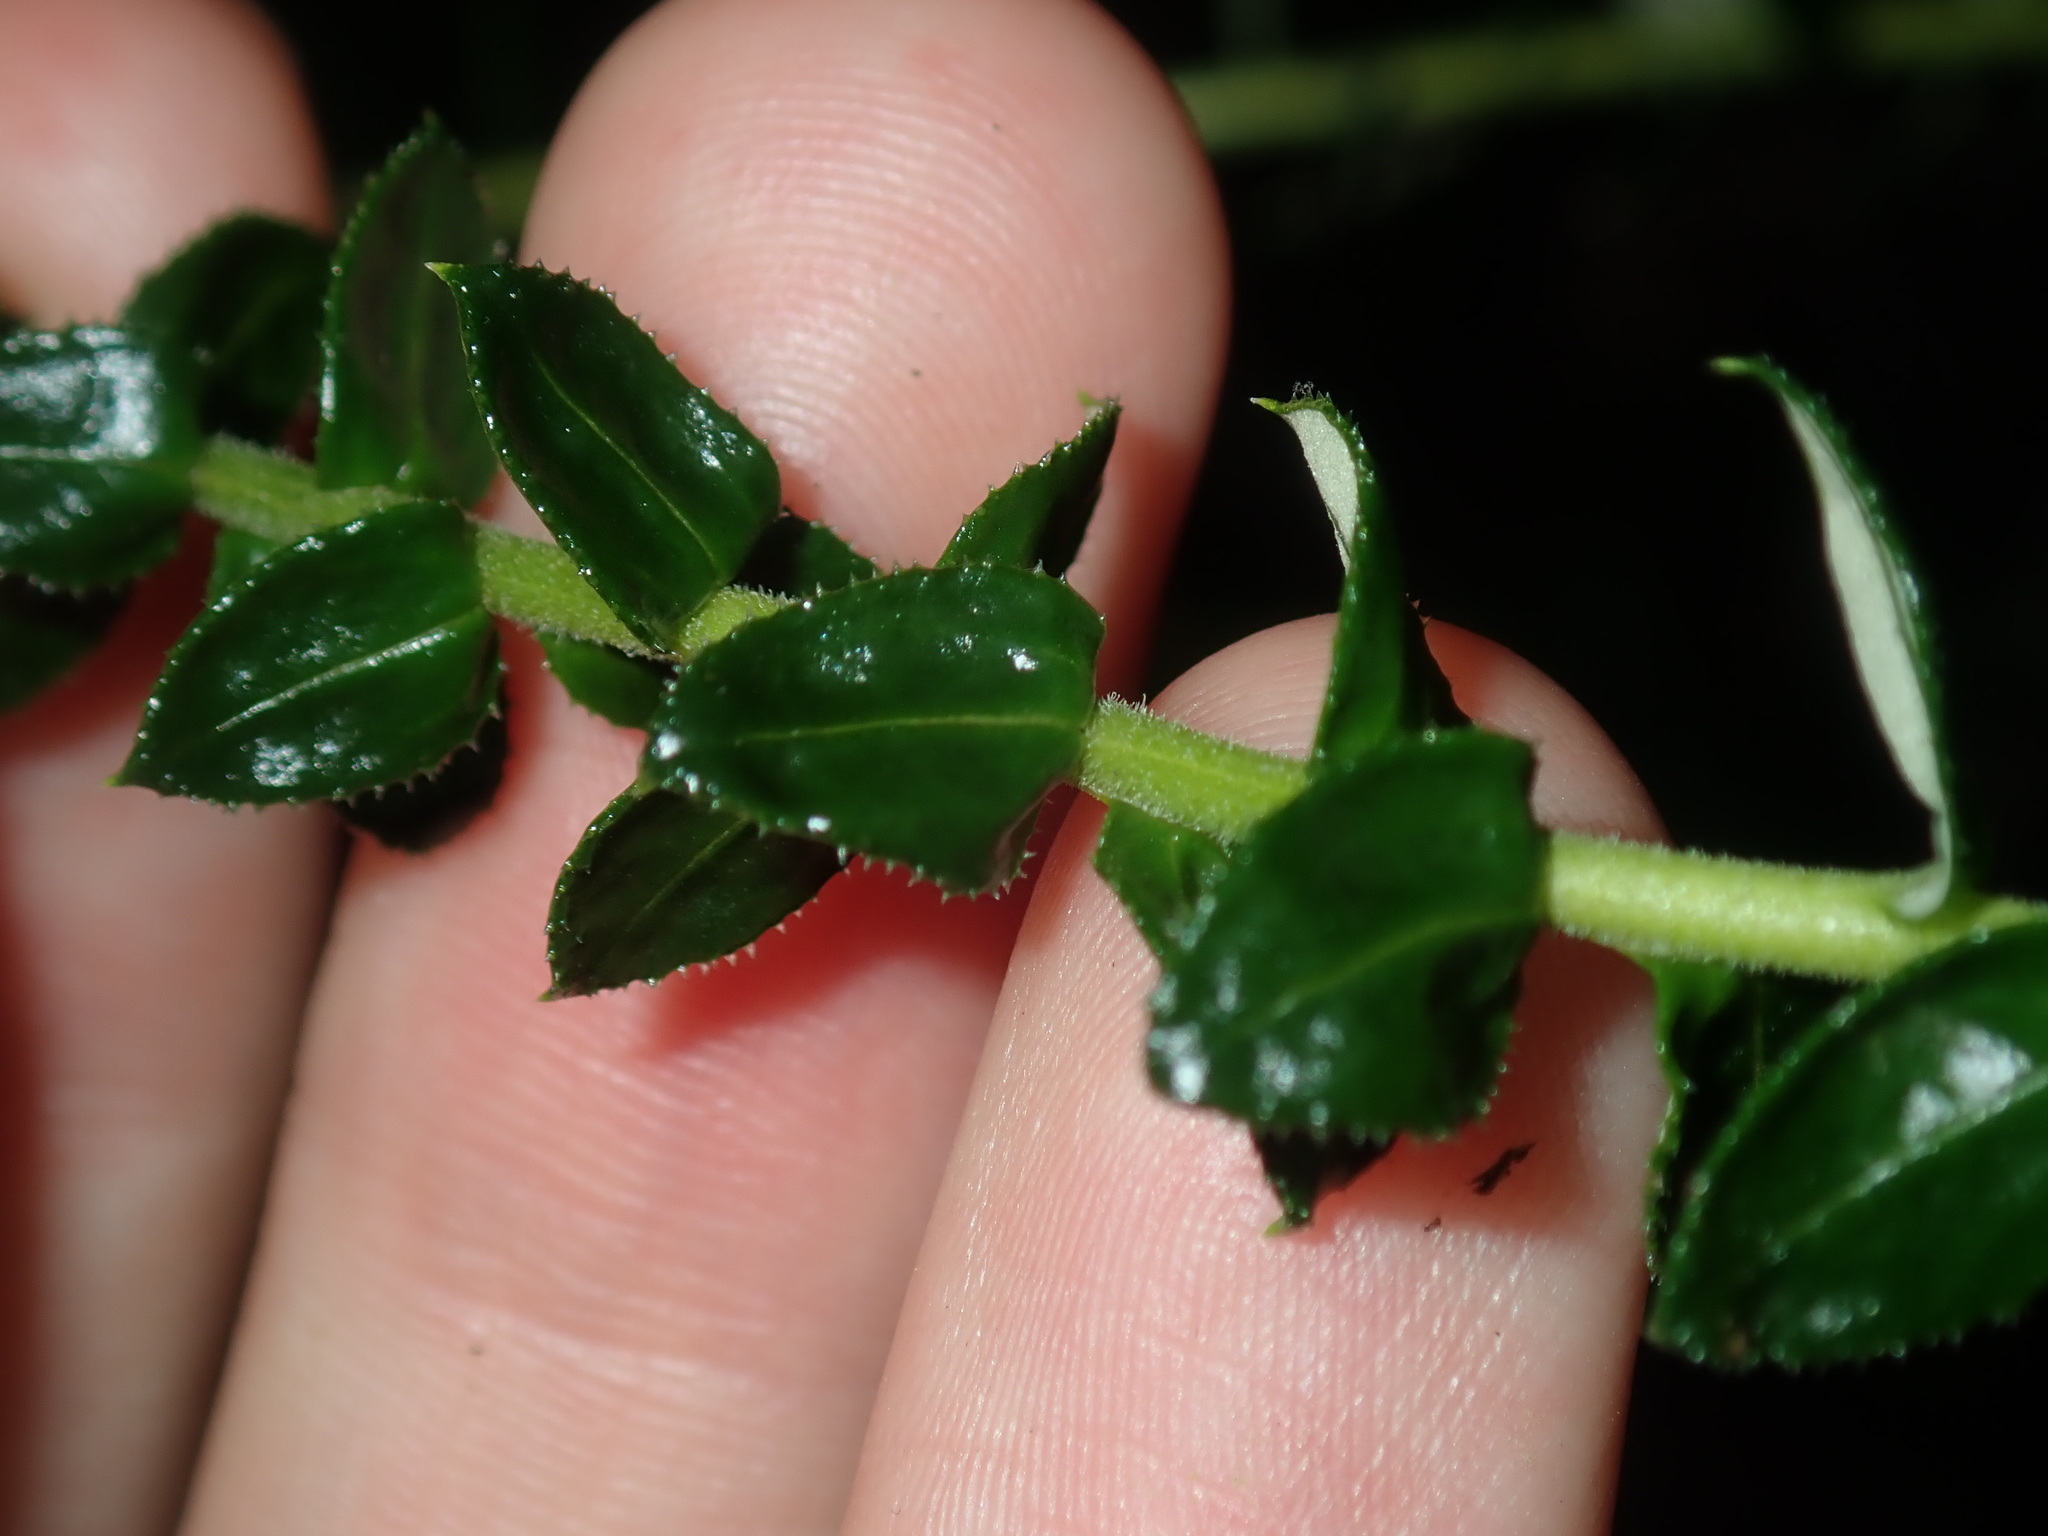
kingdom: Plantae
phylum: Tracheophyta
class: Magnoliopsida
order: Asterales
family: Asteraceae
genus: Cassinia
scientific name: Cassinia denticulata
